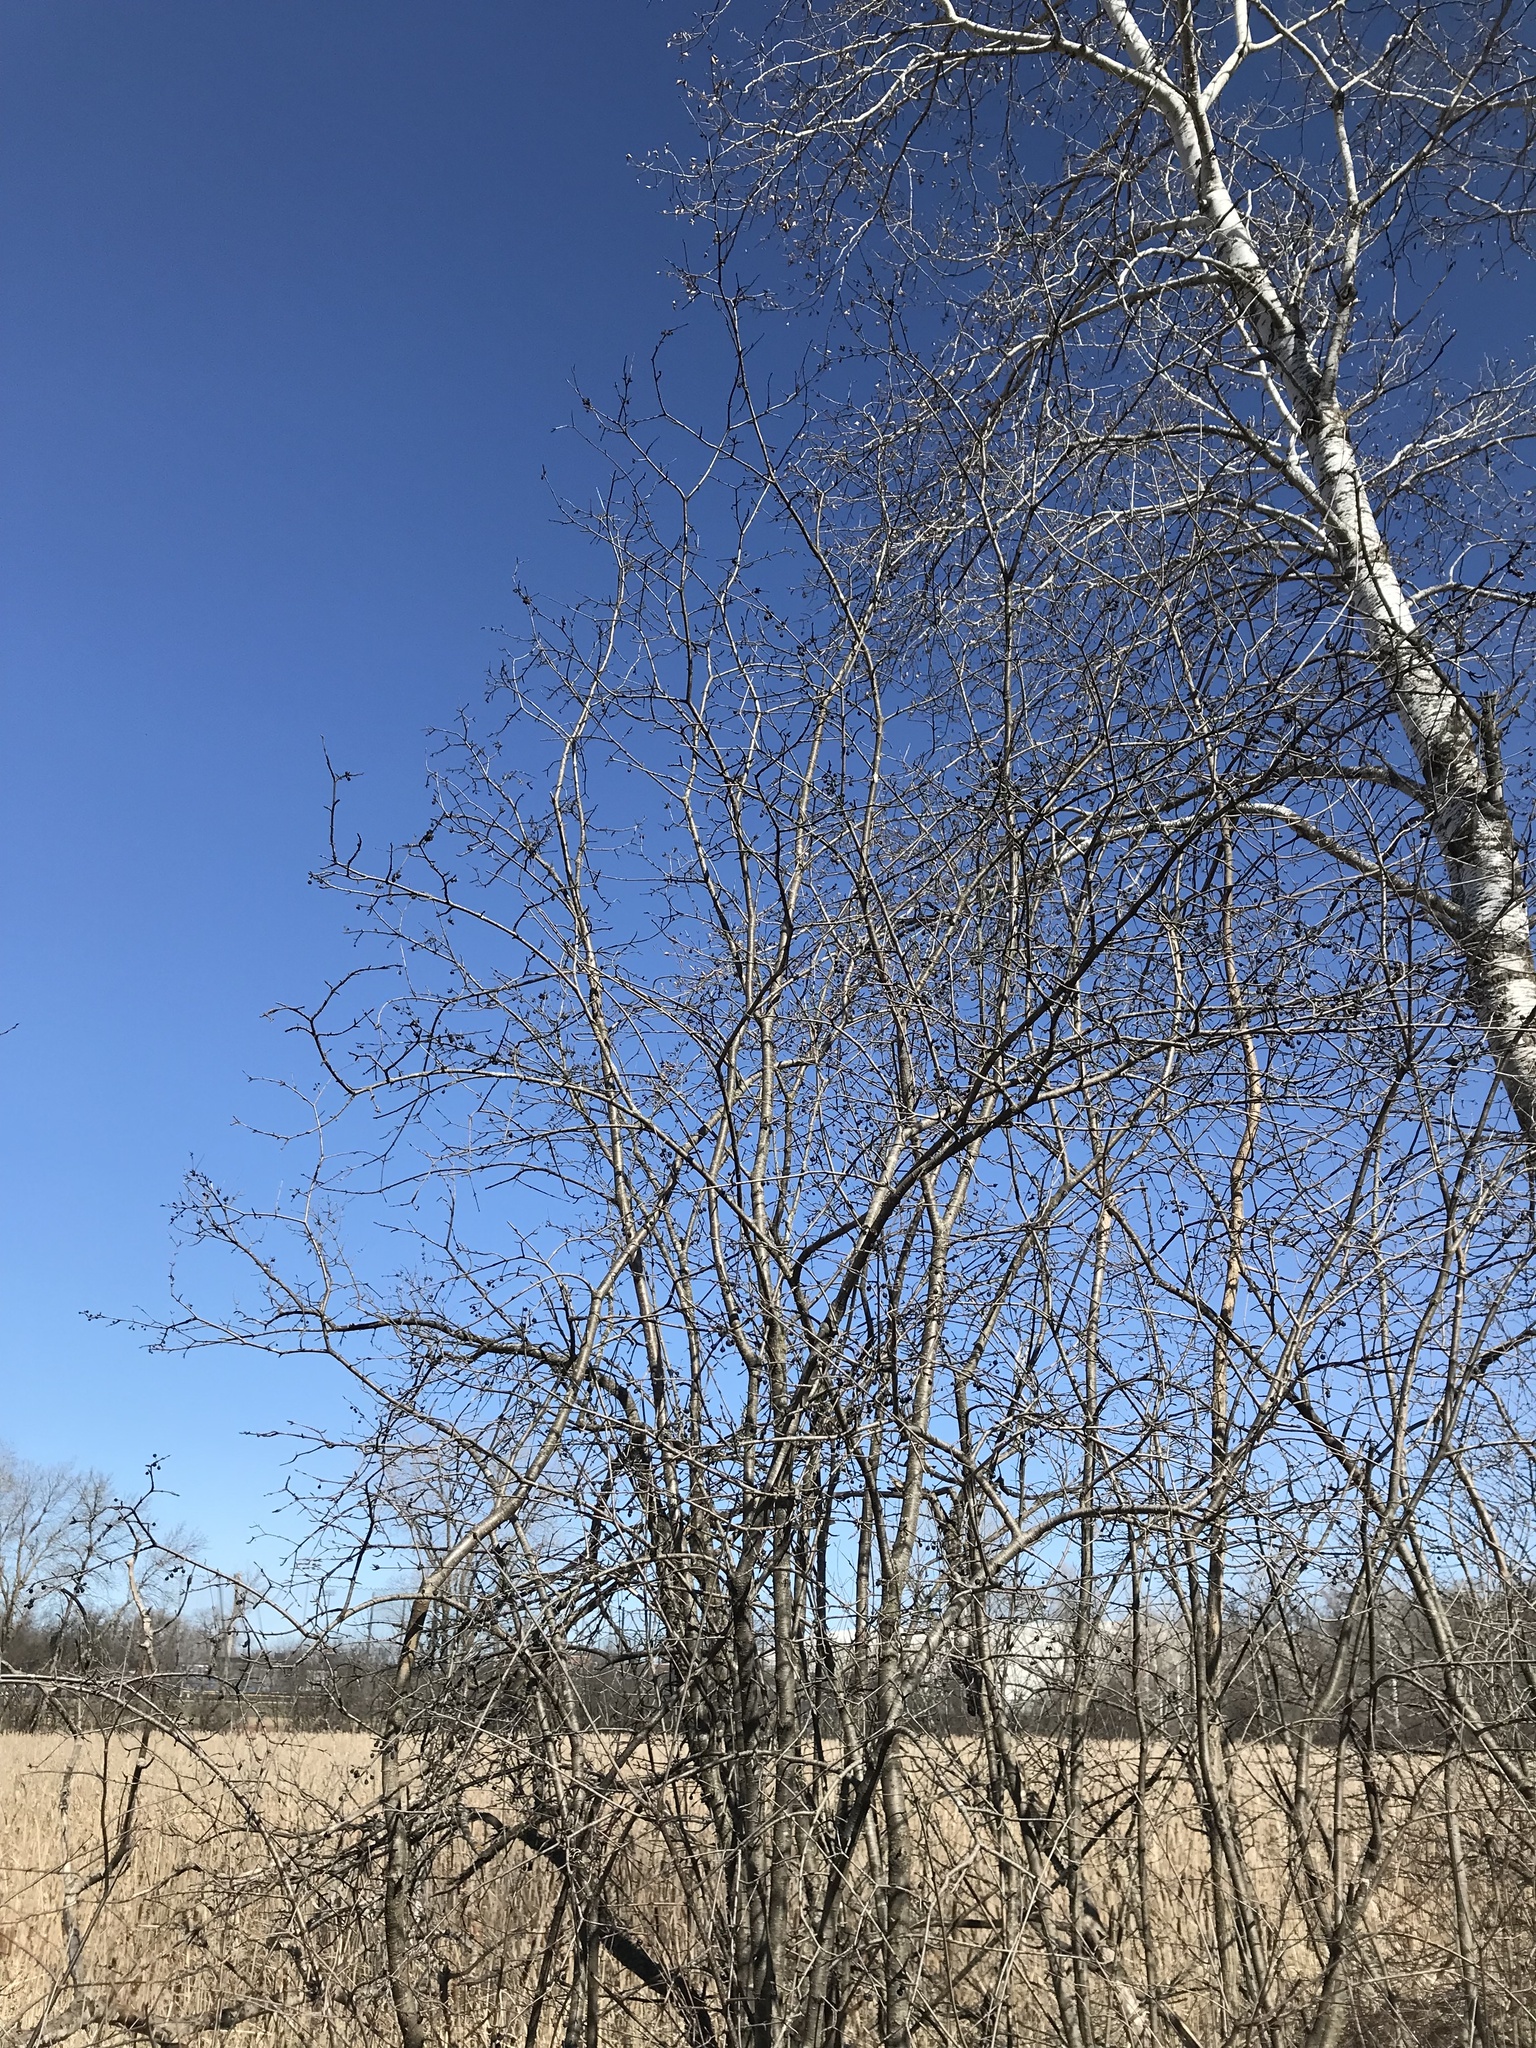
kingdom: Plantae
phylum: Tracheophyta
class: Magnoliopsida
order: Rosales
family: Rhamnaceae
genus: Rhamnus
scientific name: Rhamnus cathartica
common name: Common buckthorn
